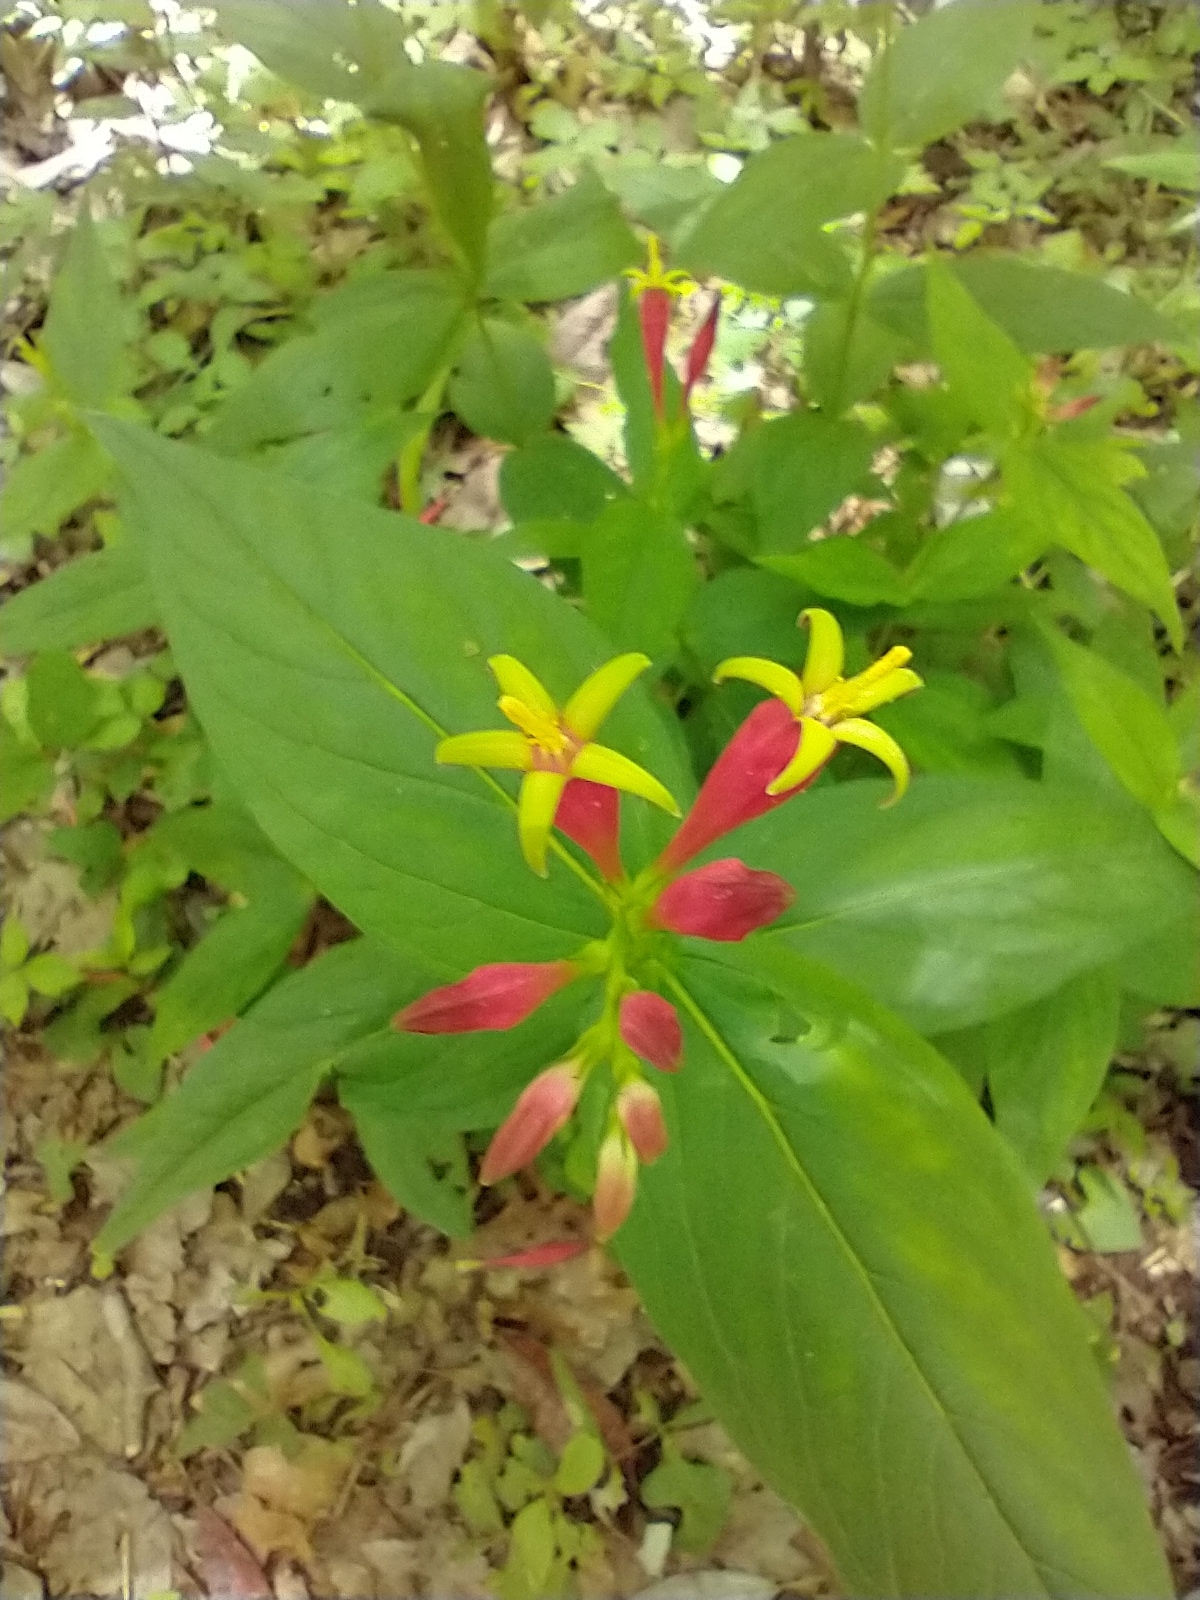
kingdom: Plantae
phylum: Tracheophyta
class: Magnoliopsida
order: Gentianales
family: Loganiaceae
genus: Spigelia
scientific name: Spigelia marilandica
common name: Indian-pink
